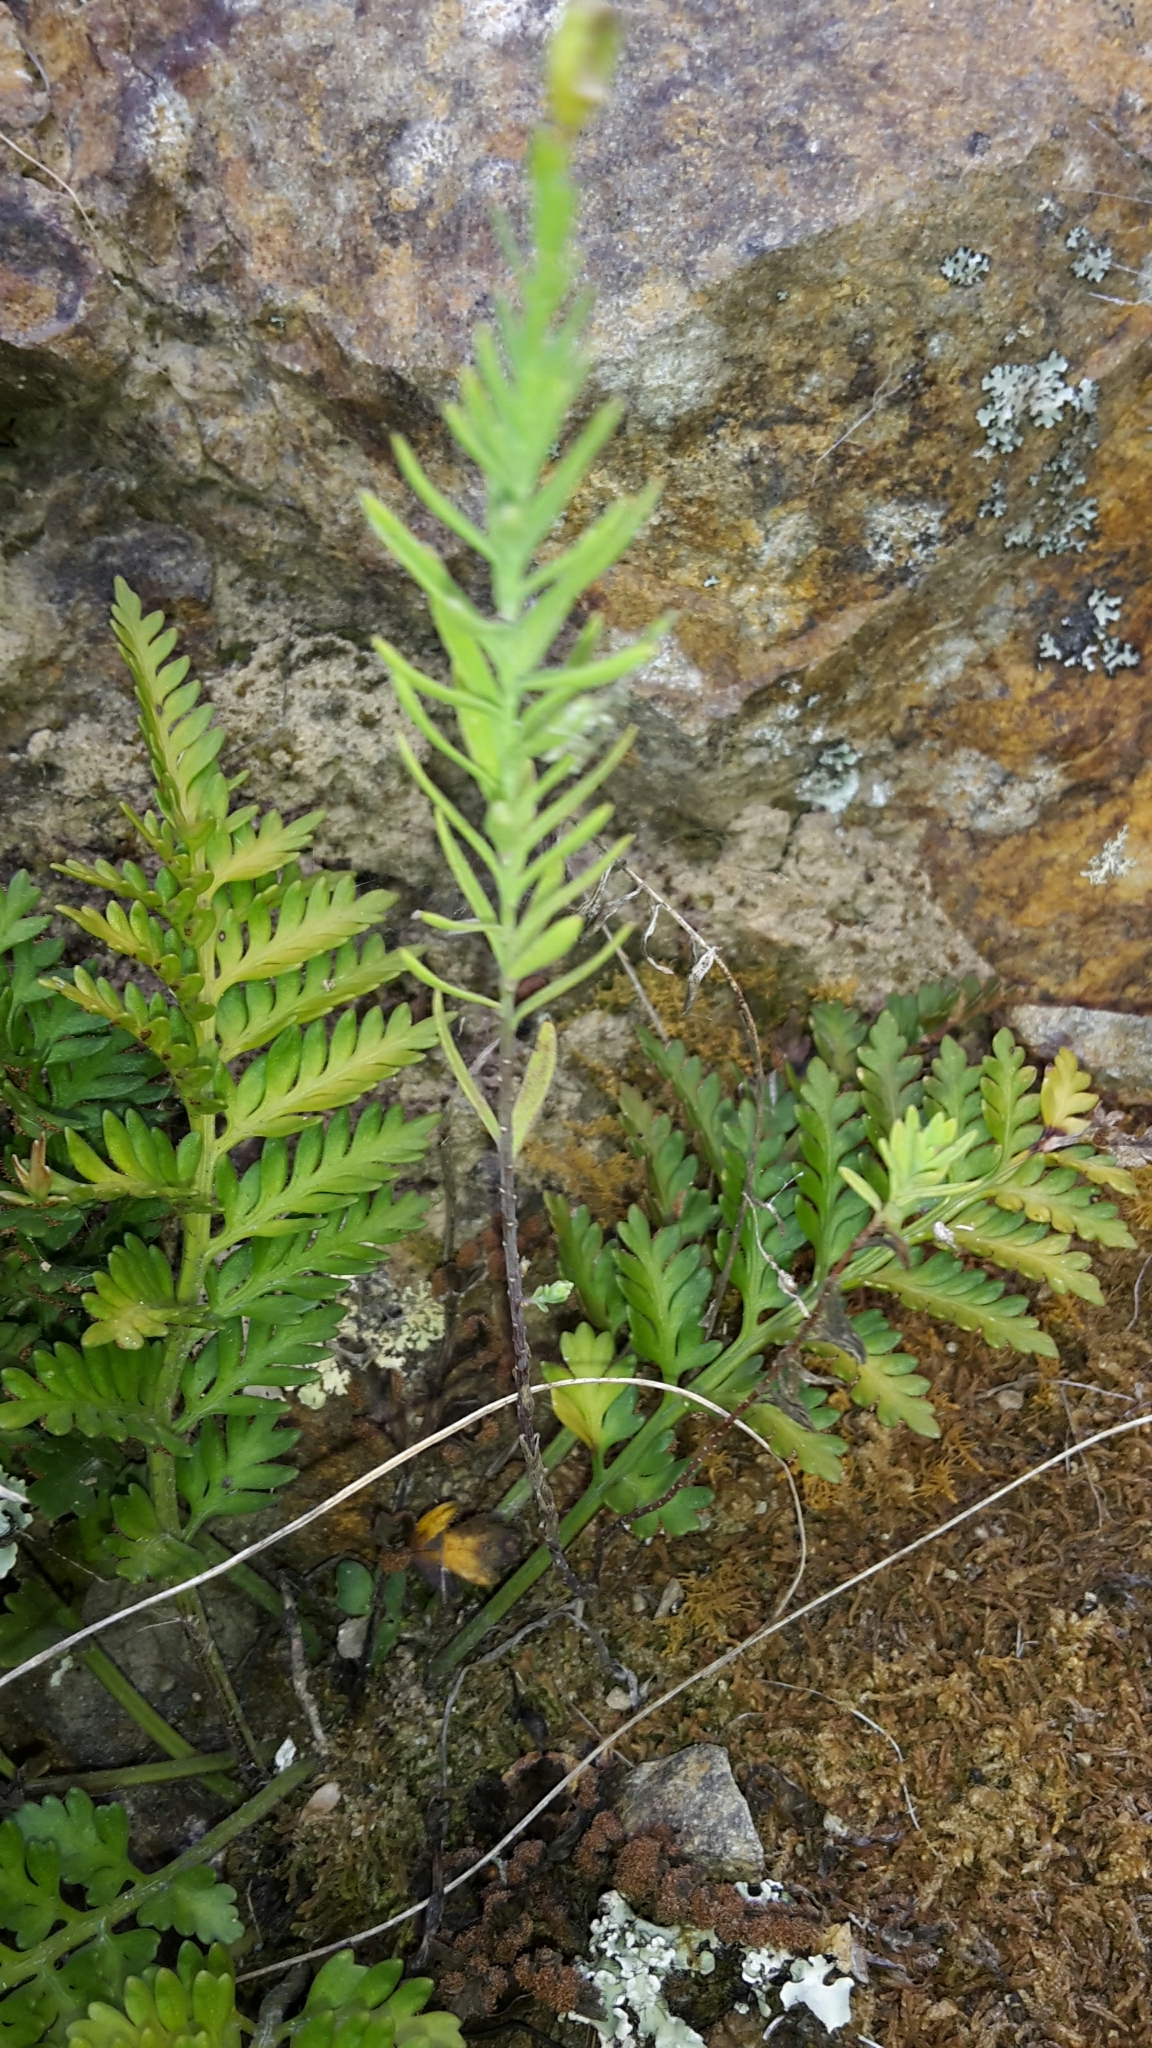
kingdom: Plantae
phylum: Tracheophyta
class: Polypodiopsida
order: Polypodiales
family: Aspleniaceae
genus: Asplenium
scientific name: Asplenium appendiculatum
